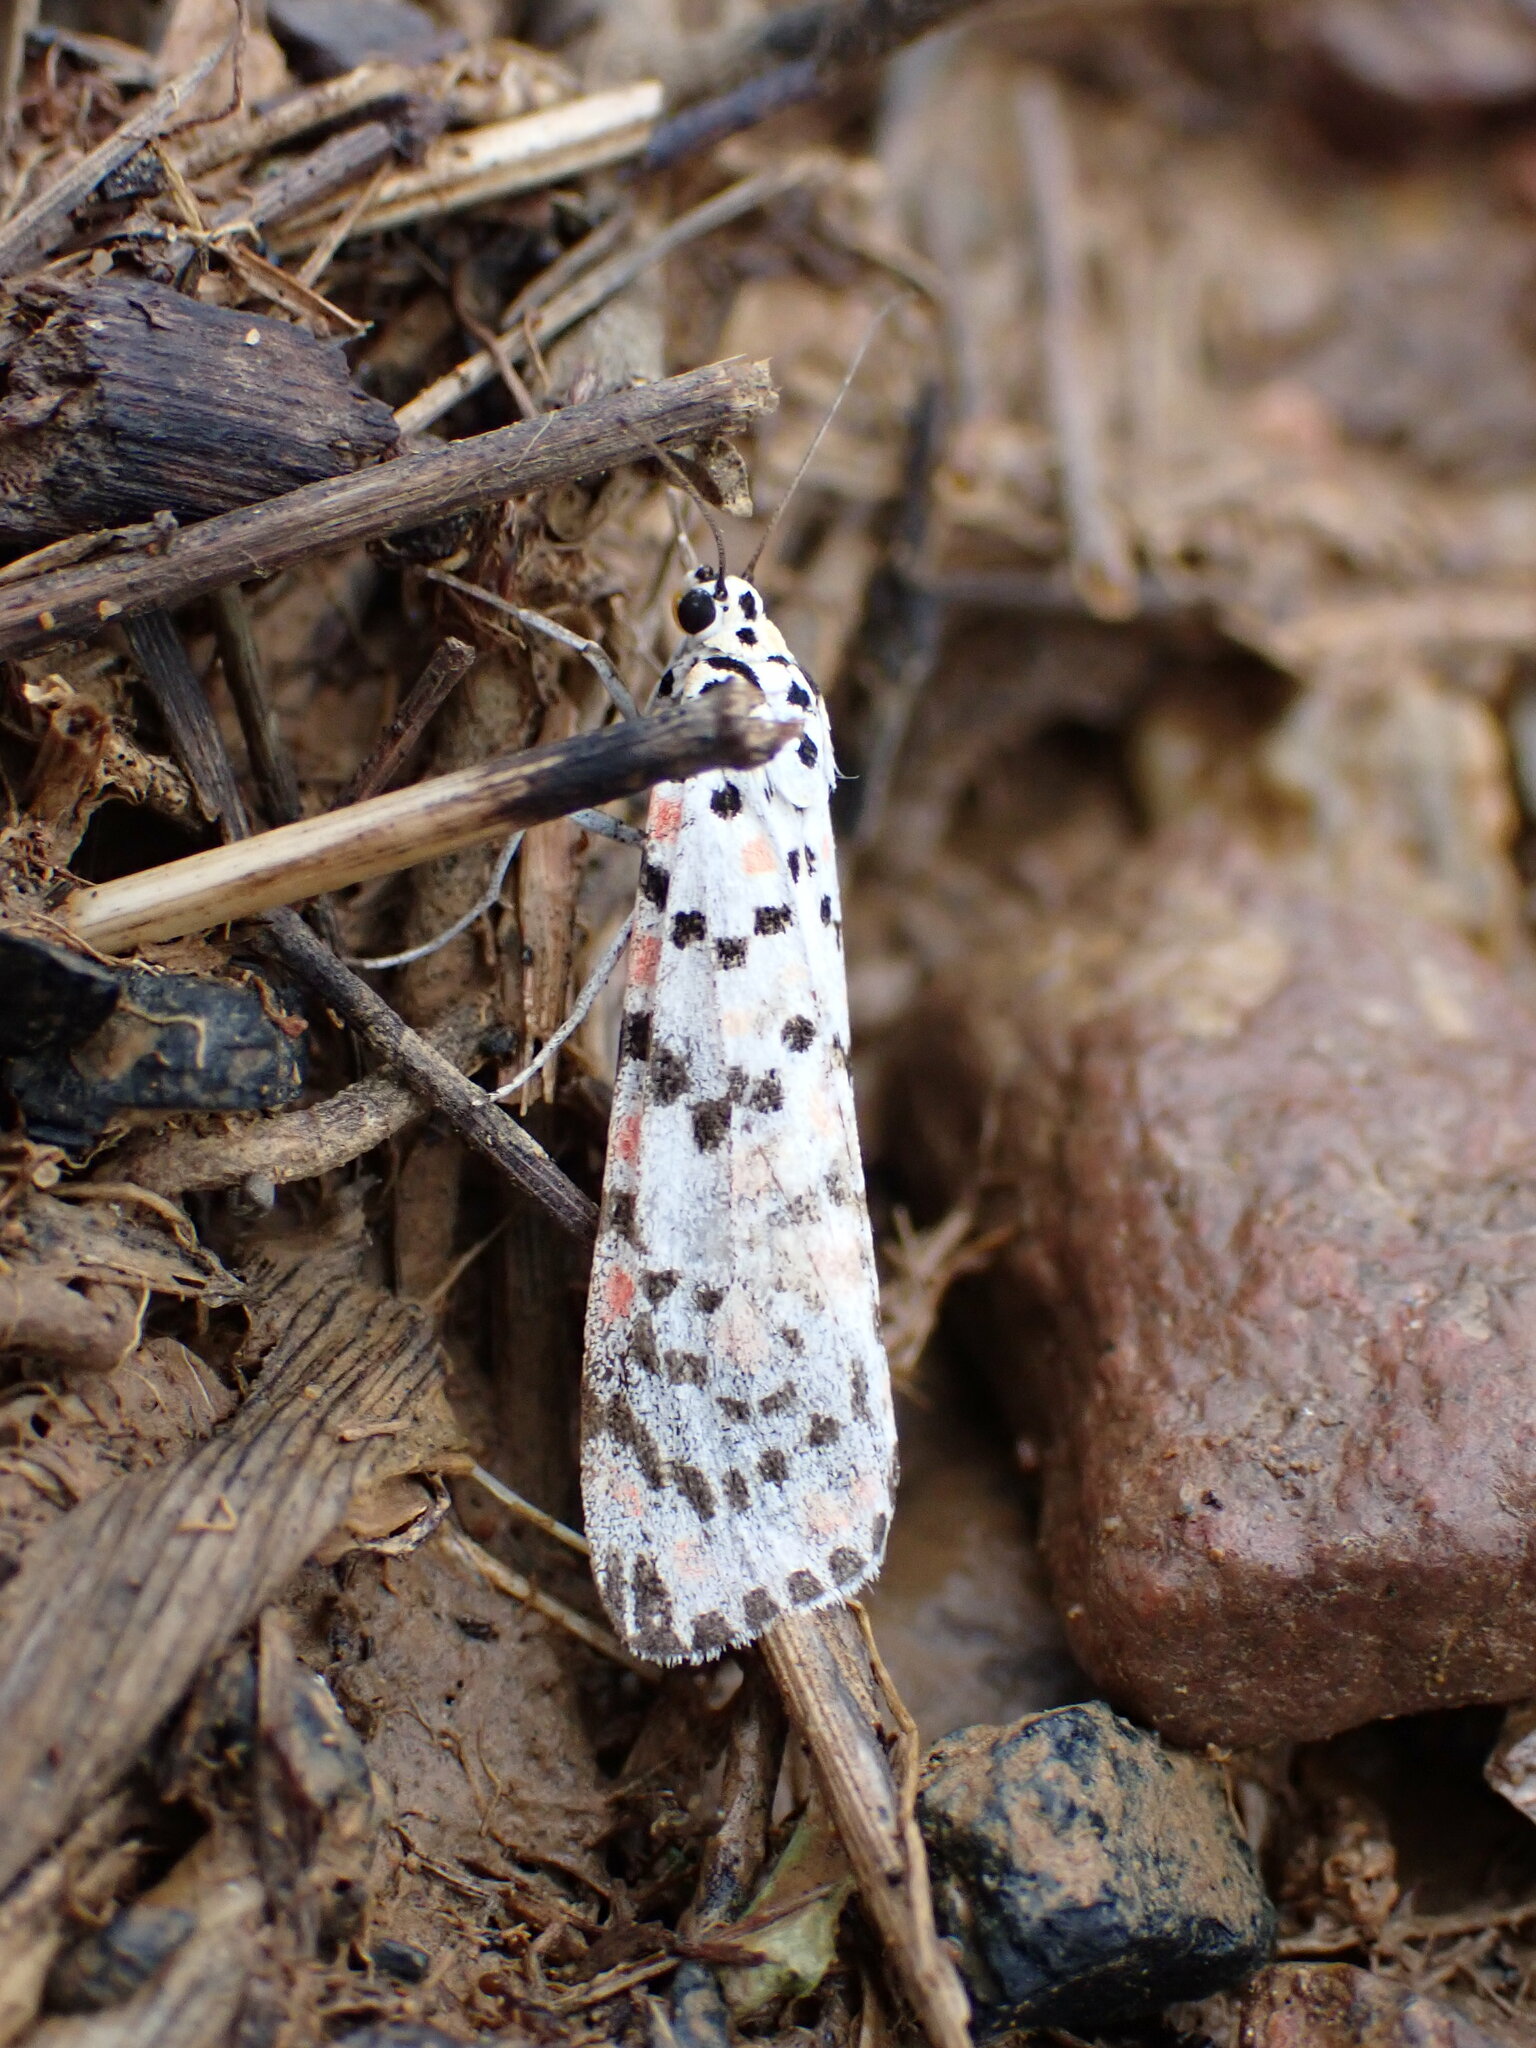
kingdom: Animalia
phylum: Arthropoda
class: Insecta
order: Lepidoptera
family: Erebidae
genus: Utetheisa
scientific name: Utetheisa pulchella
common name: Crimson speckled
